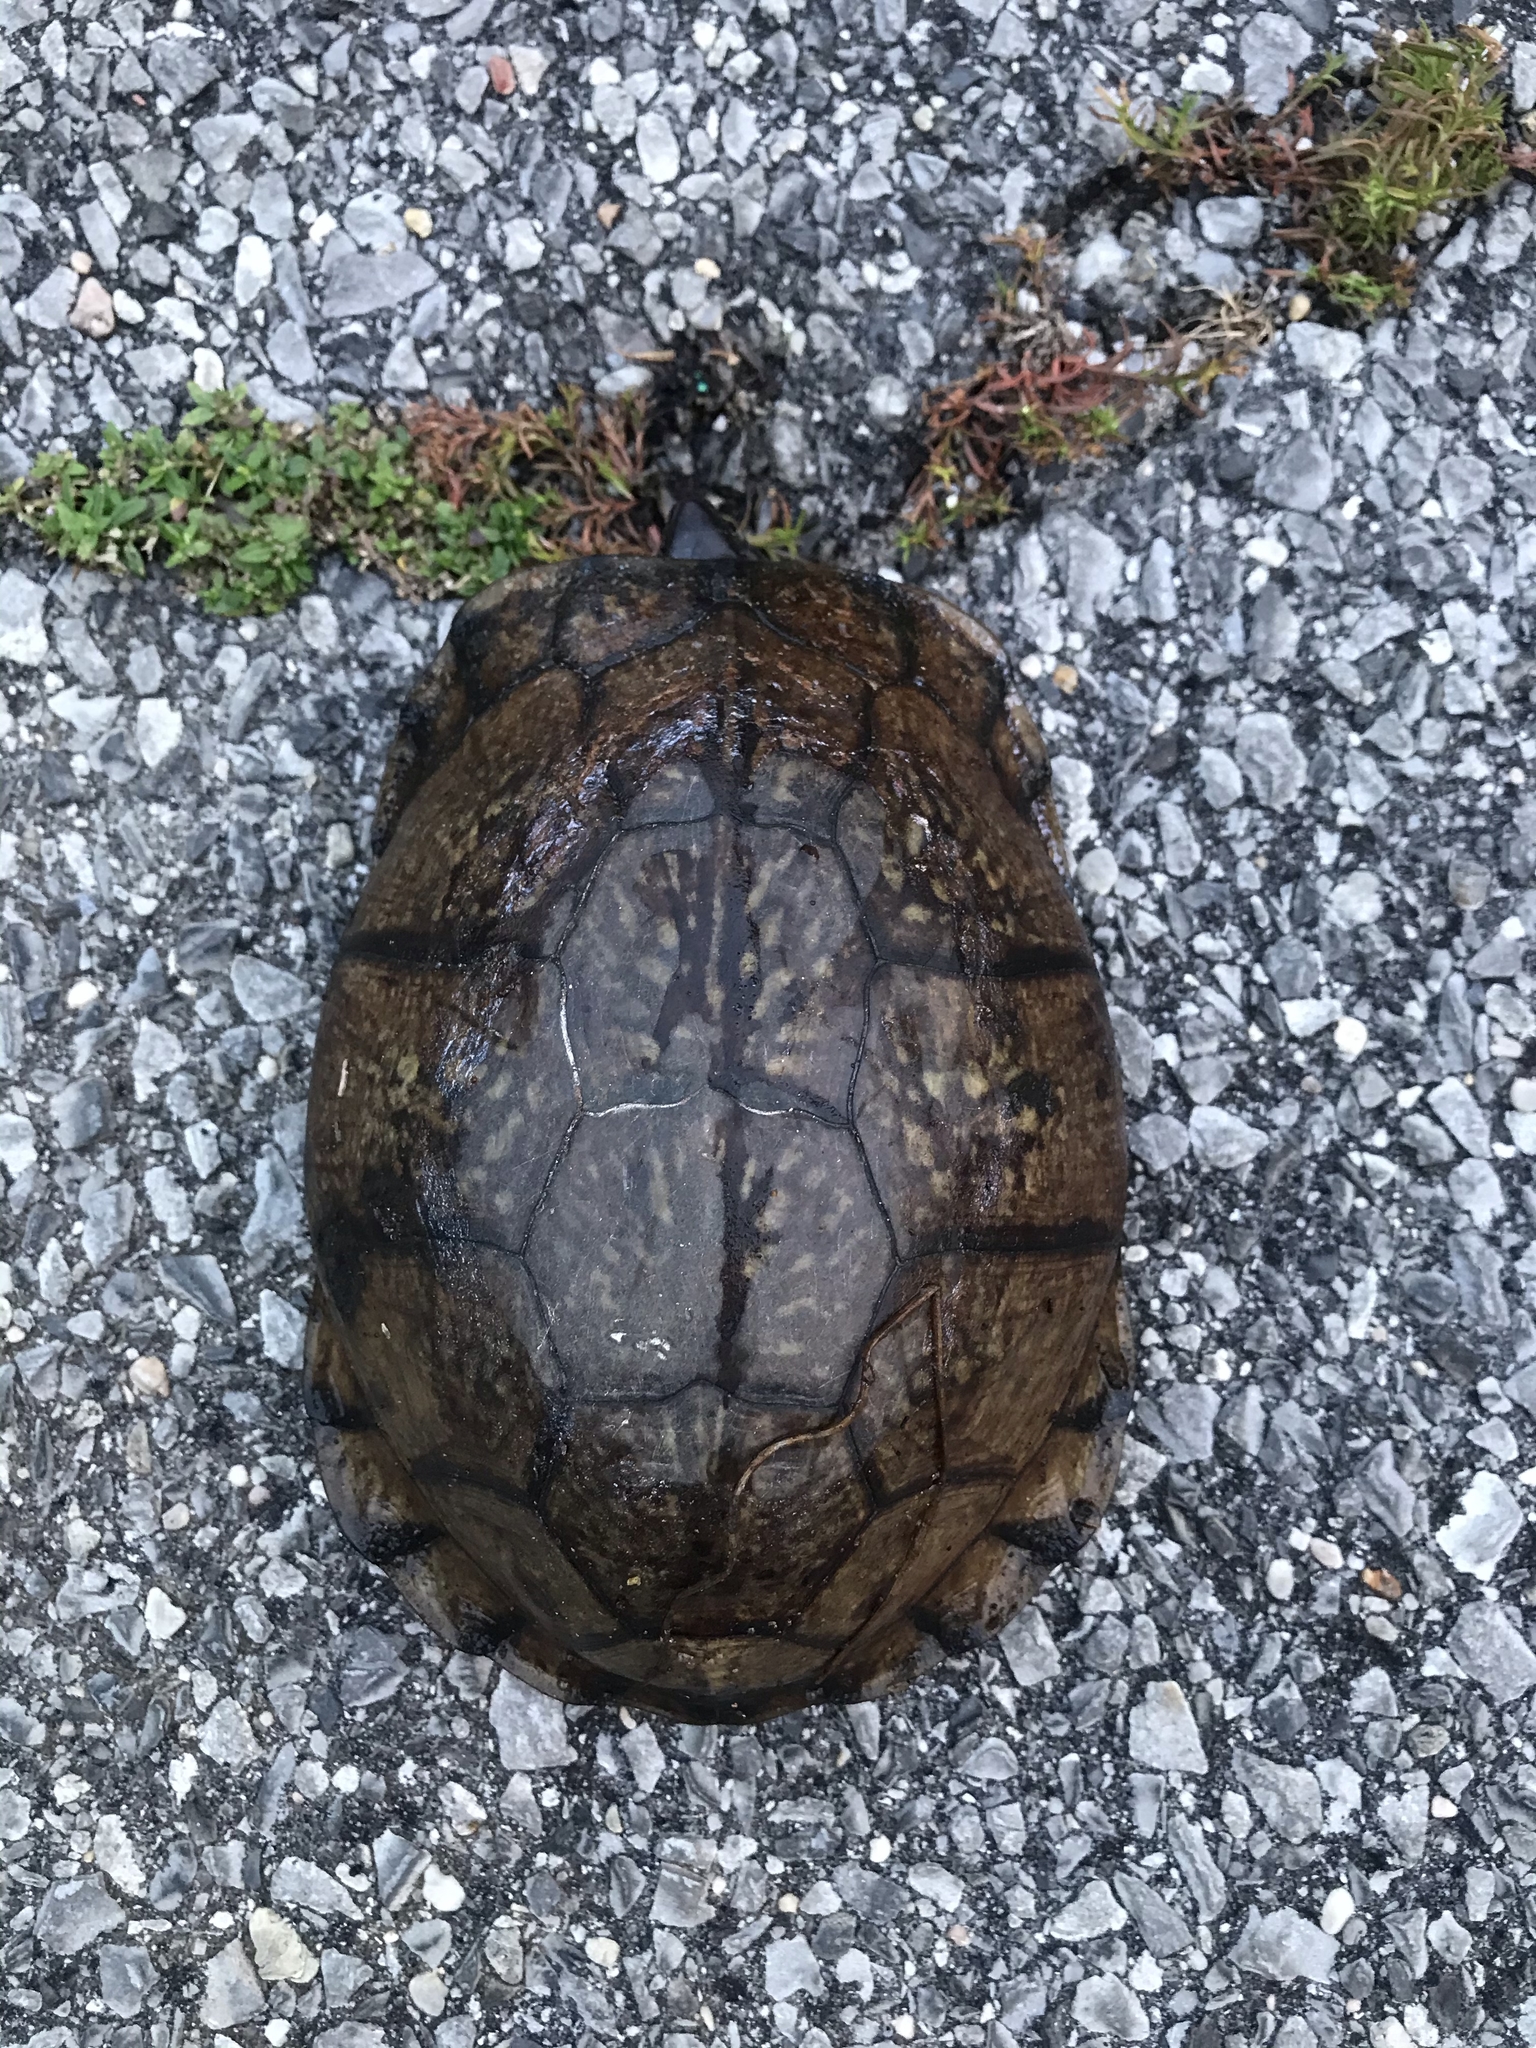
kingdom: Animalia
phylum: Chordata
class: Testudines
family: Emydidae
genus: Terrapene
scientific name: Terrapene carolina
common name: Common box turtle
